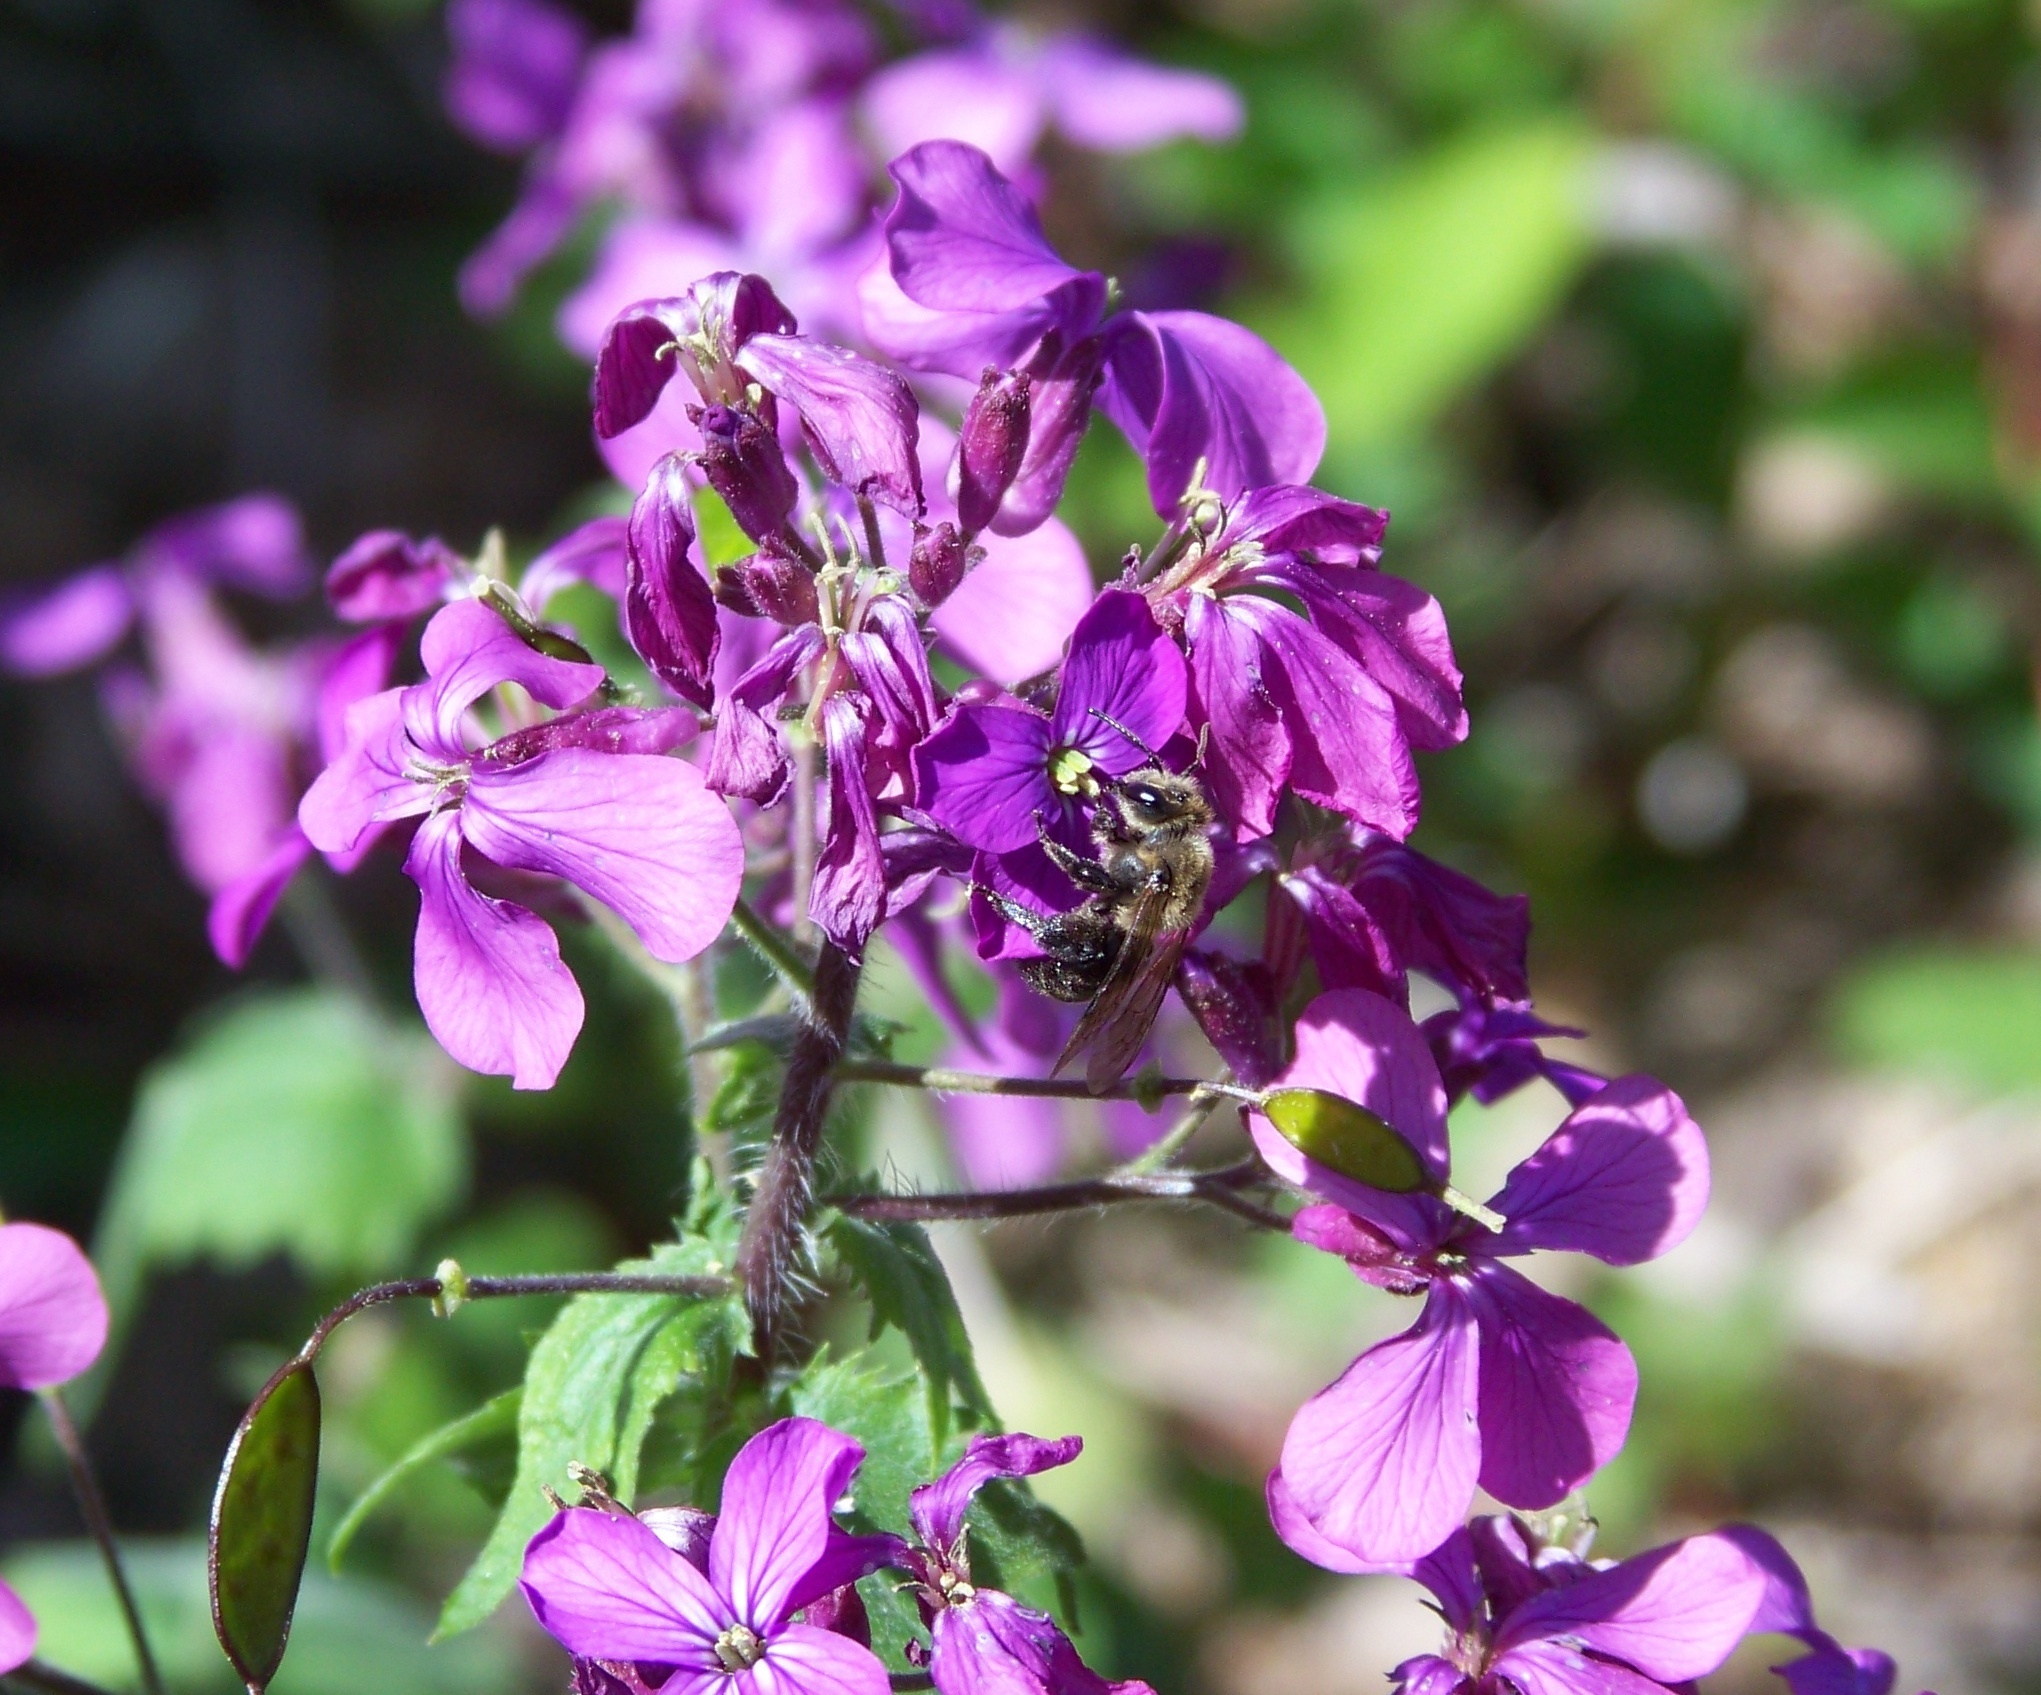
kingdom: Animalia
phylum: Arthropoda
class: Insecta
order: Hymenoptera
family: Andrenidae
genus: Andrena
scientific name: Andrena vicina
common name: Neighborly mining bee
